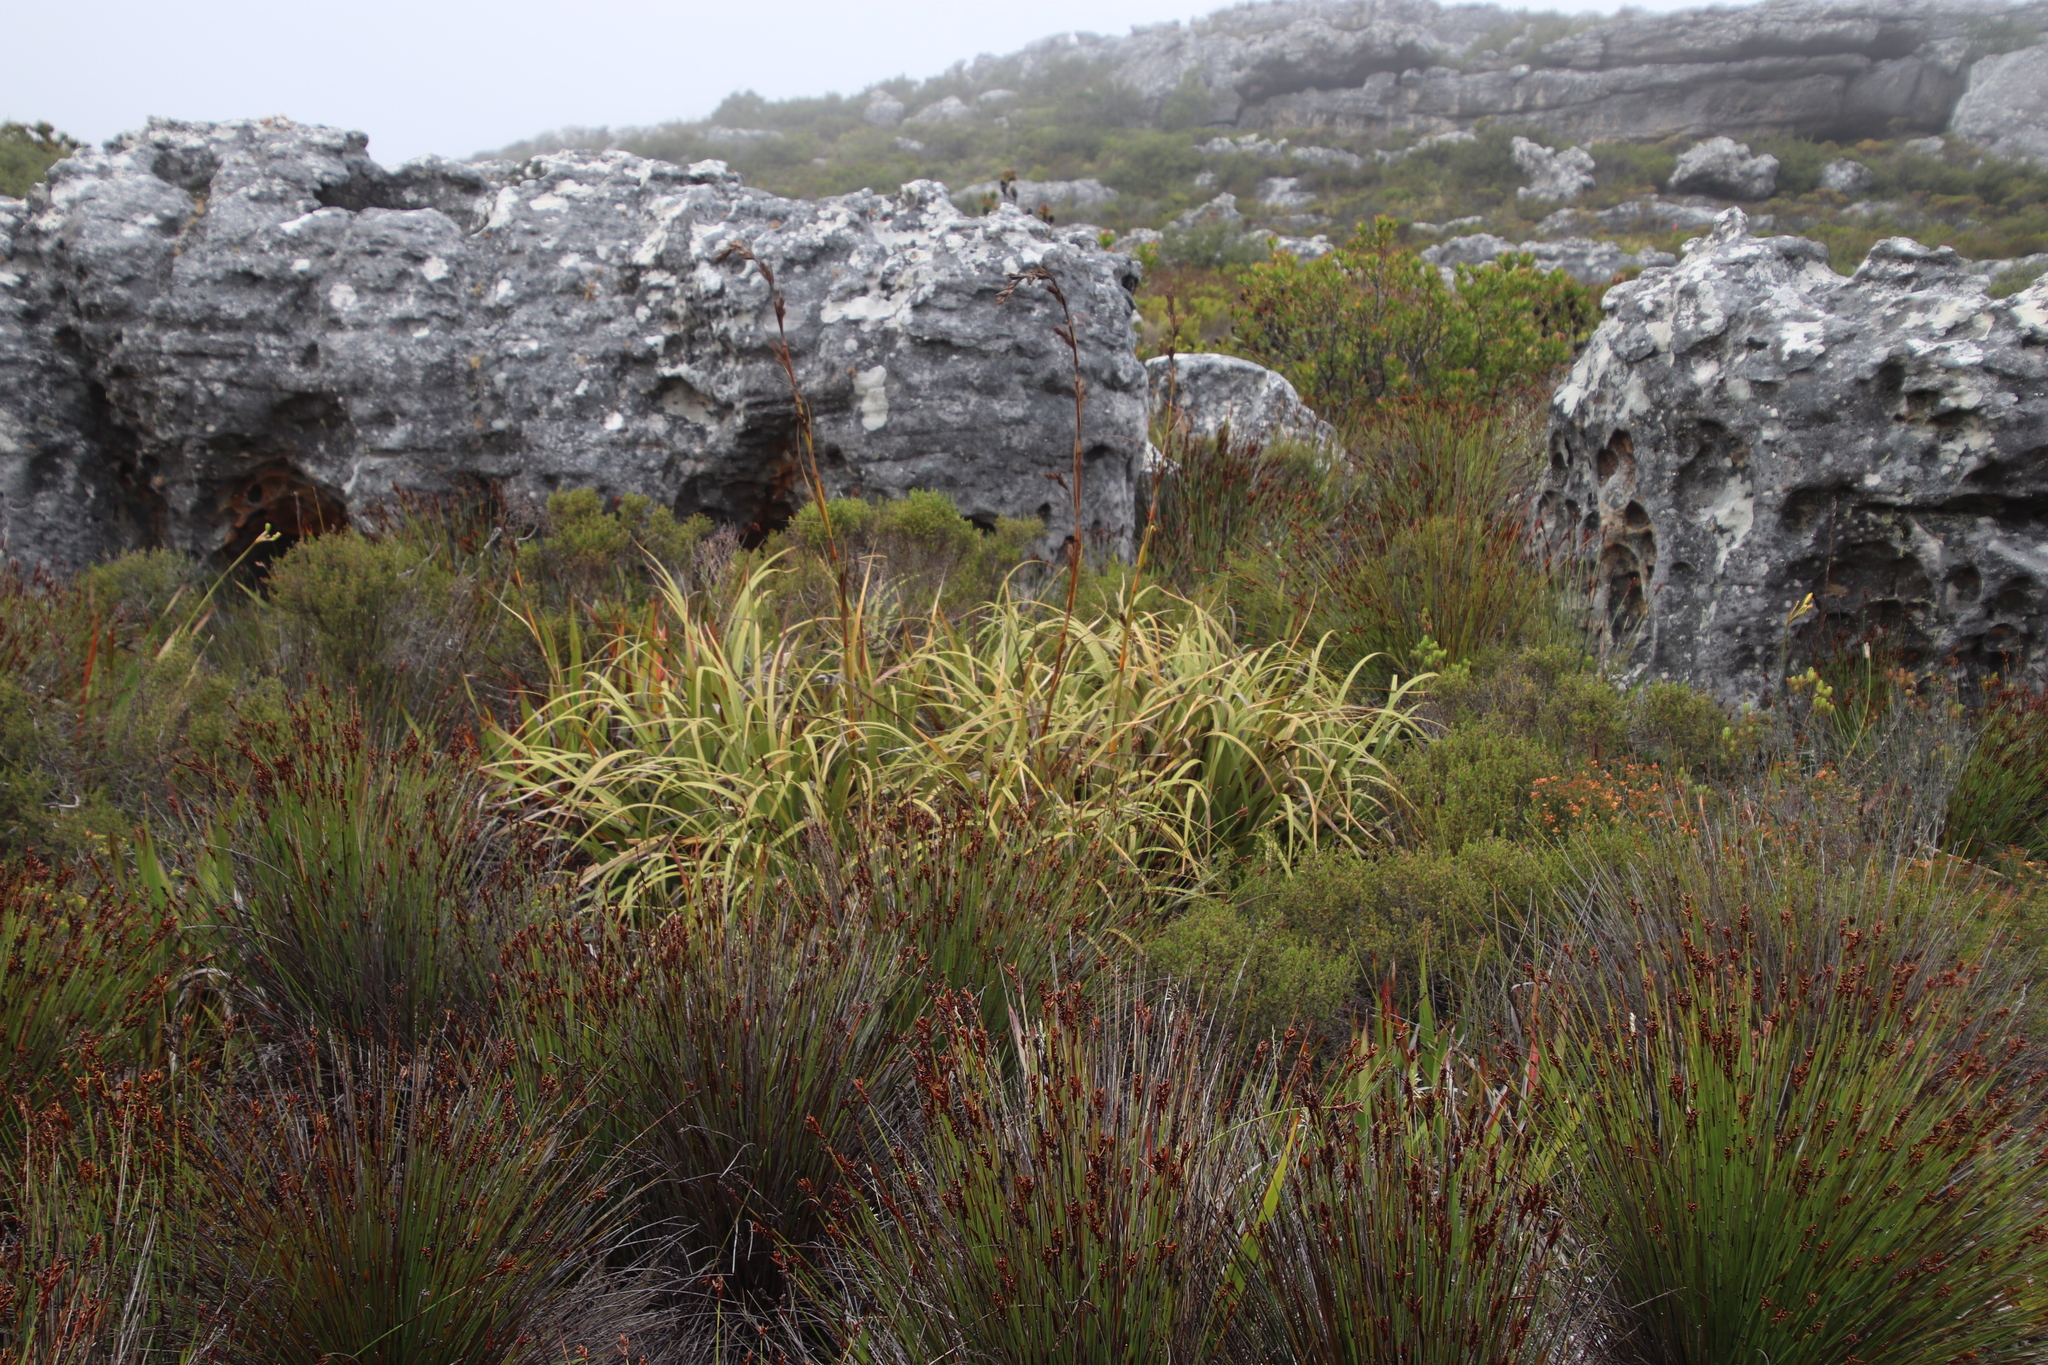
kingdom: Plantae
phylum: Tracheophyta
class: Liliopsida
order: Poales
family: Cyperaceae
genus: Tetraria
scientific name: Tetraria thermalis
